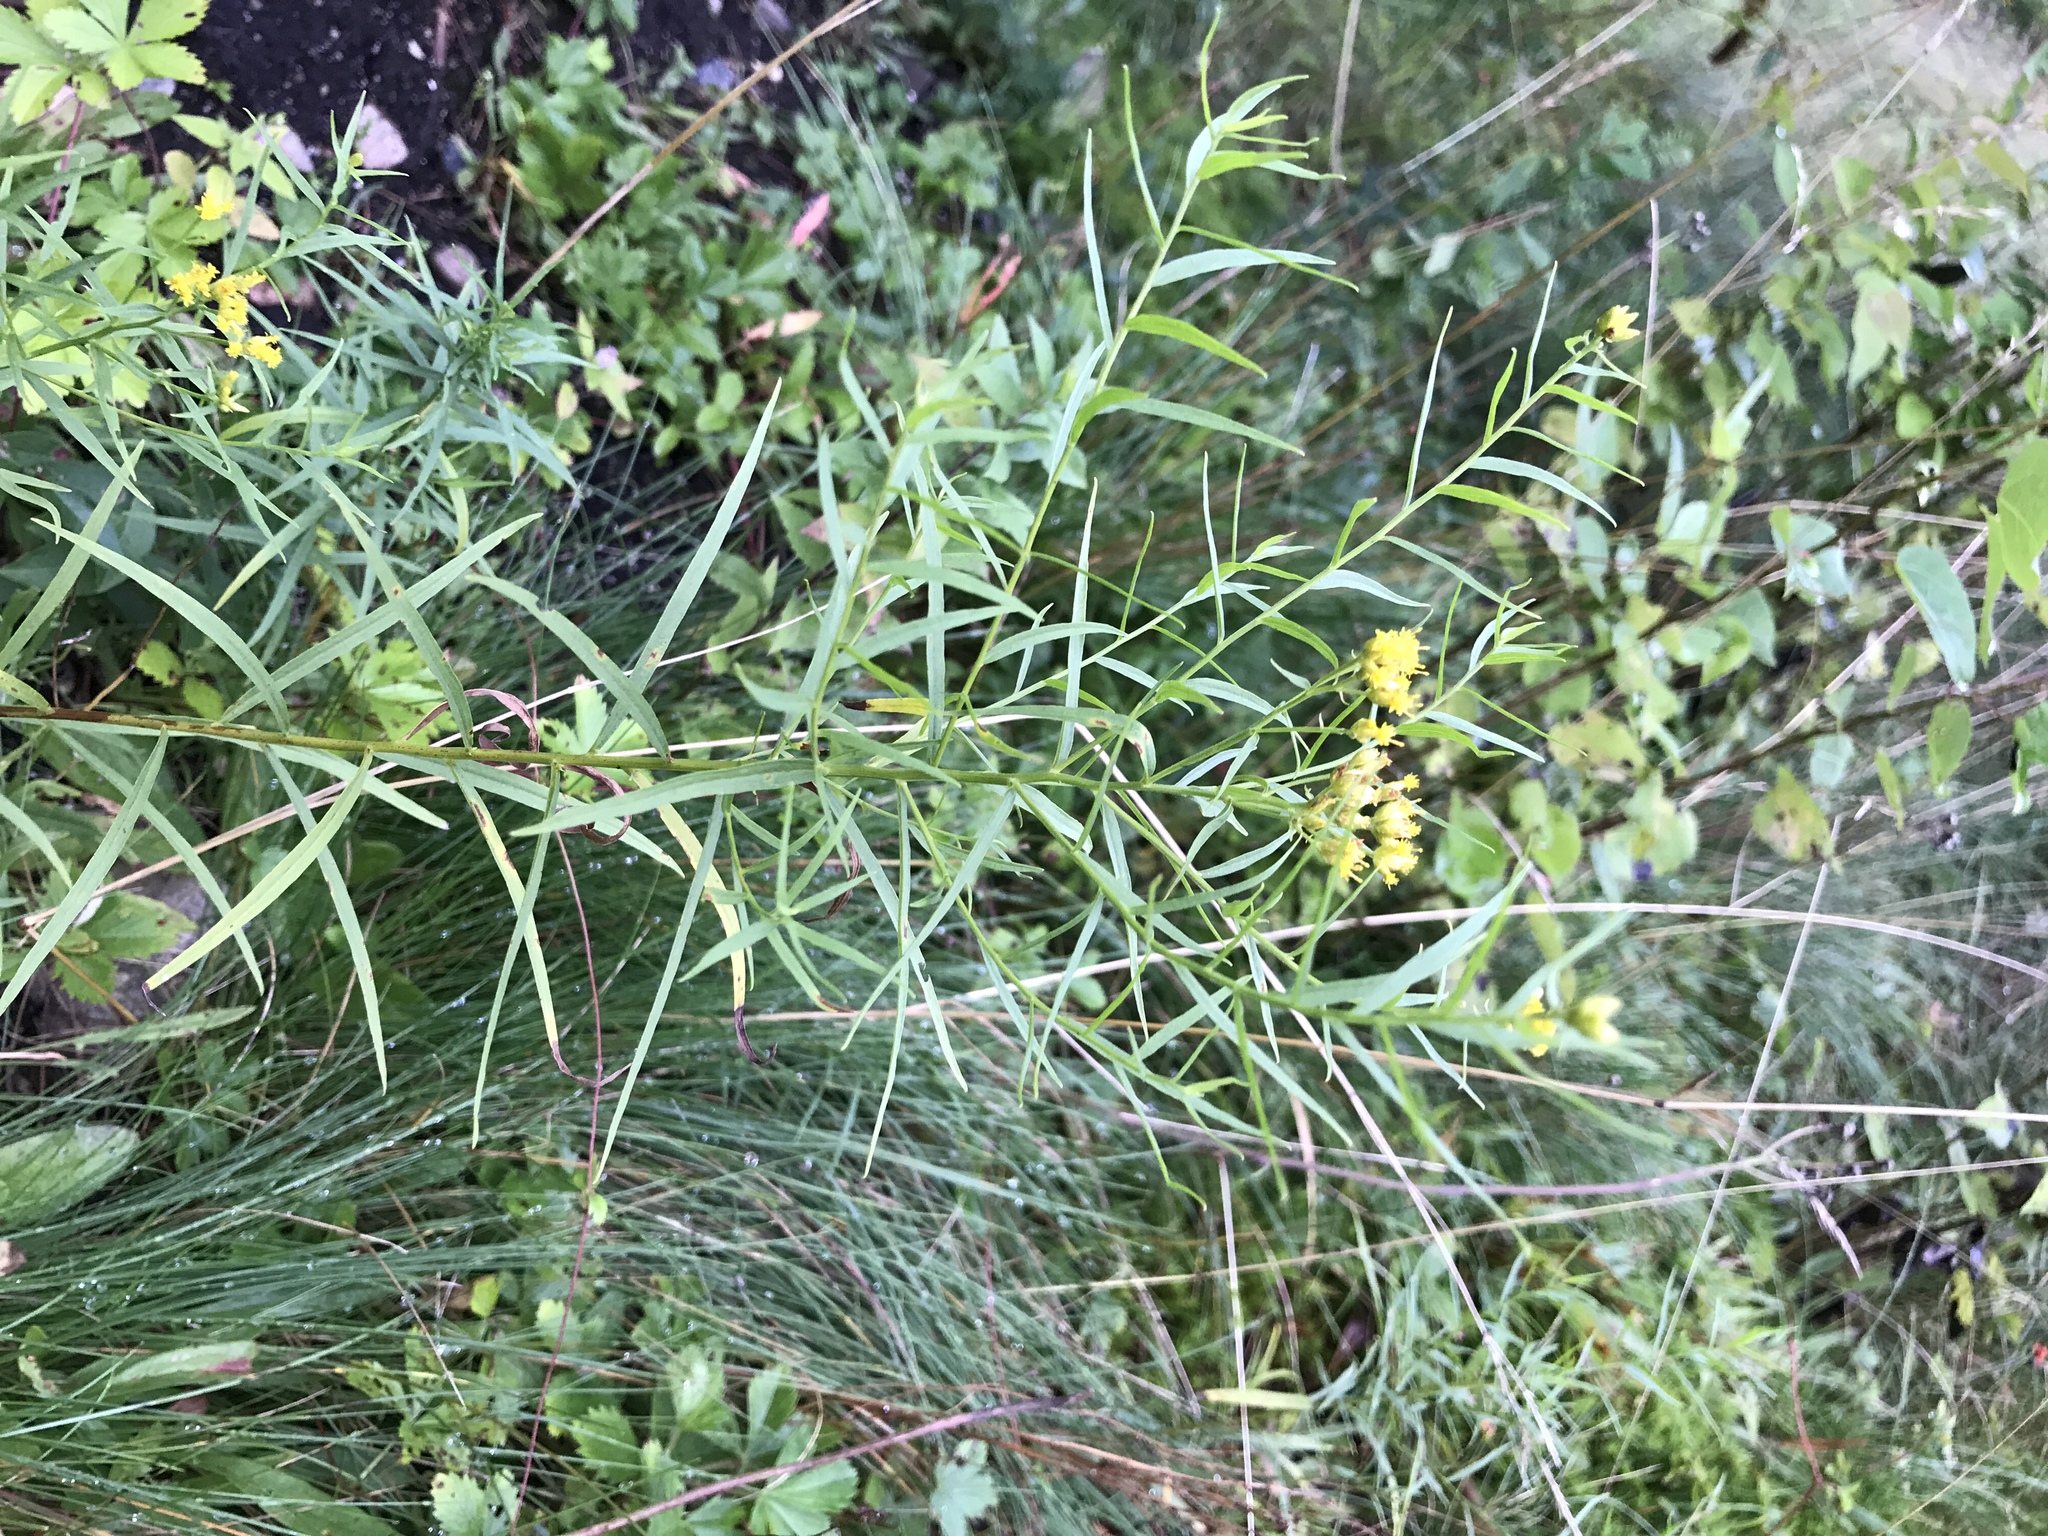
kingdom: Plantae
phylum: Tracheophyta
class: Magnoliopsida
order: Asterales
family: Asteraceae
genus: Euthamia
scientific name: Euthamia graminifolia
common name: Common goldentop
